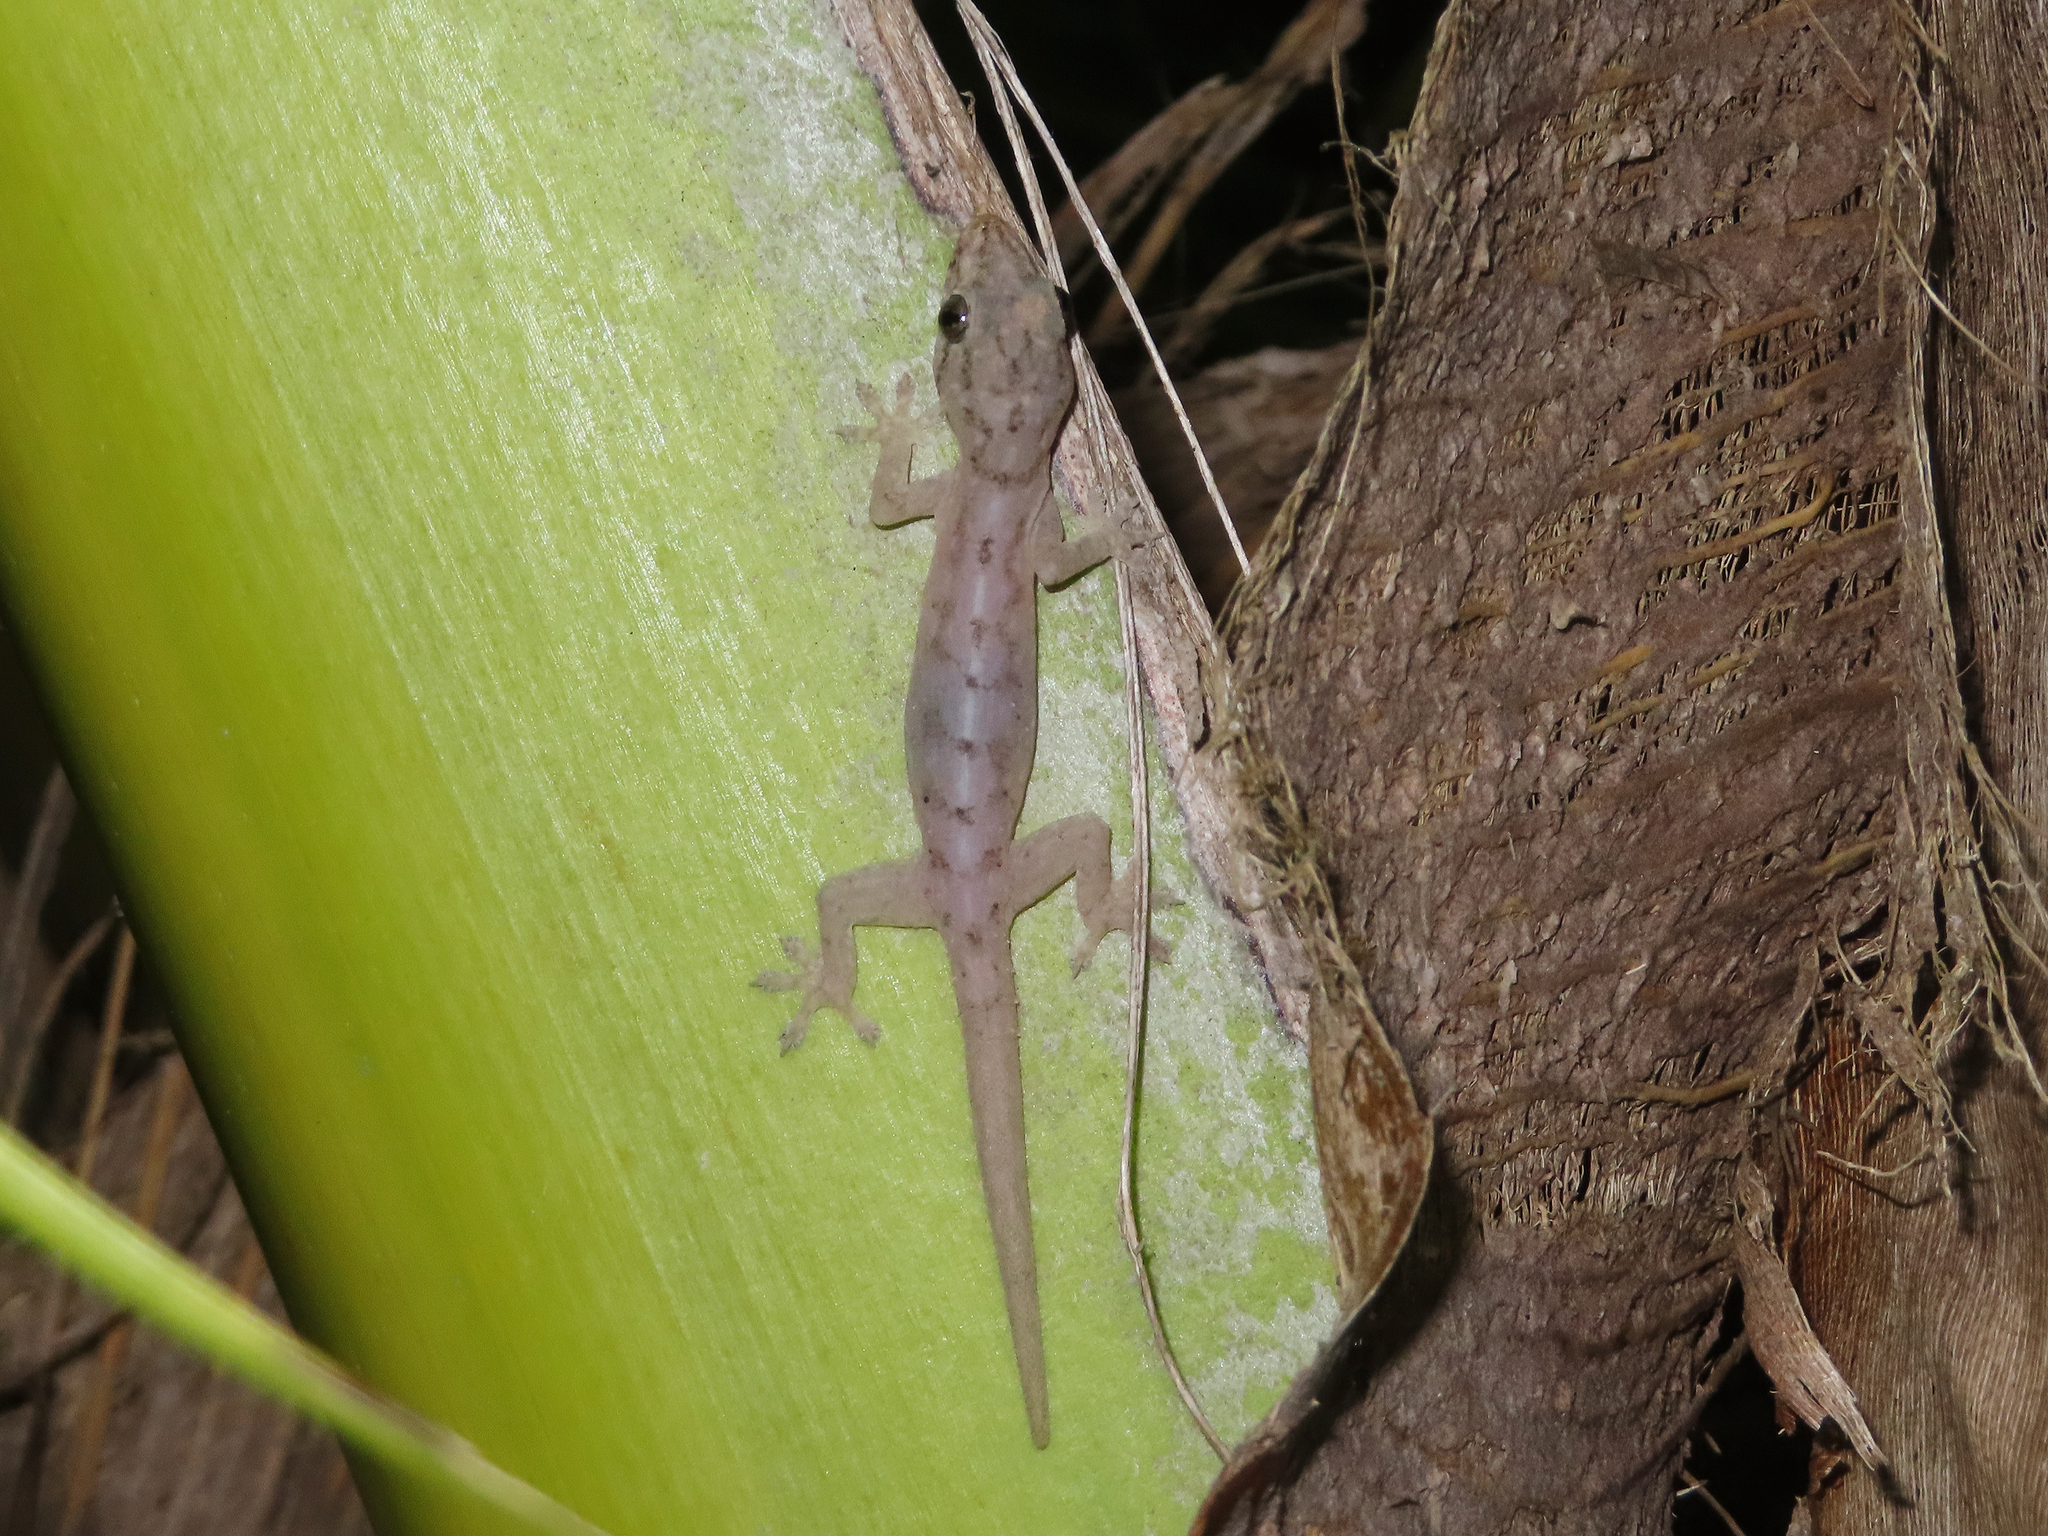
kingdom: Animalia
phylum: Chordata
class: Squamata
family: Gekkonidae
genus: Hemidactylus
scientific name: Hemidactylus frenatus
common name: Common house gecko
